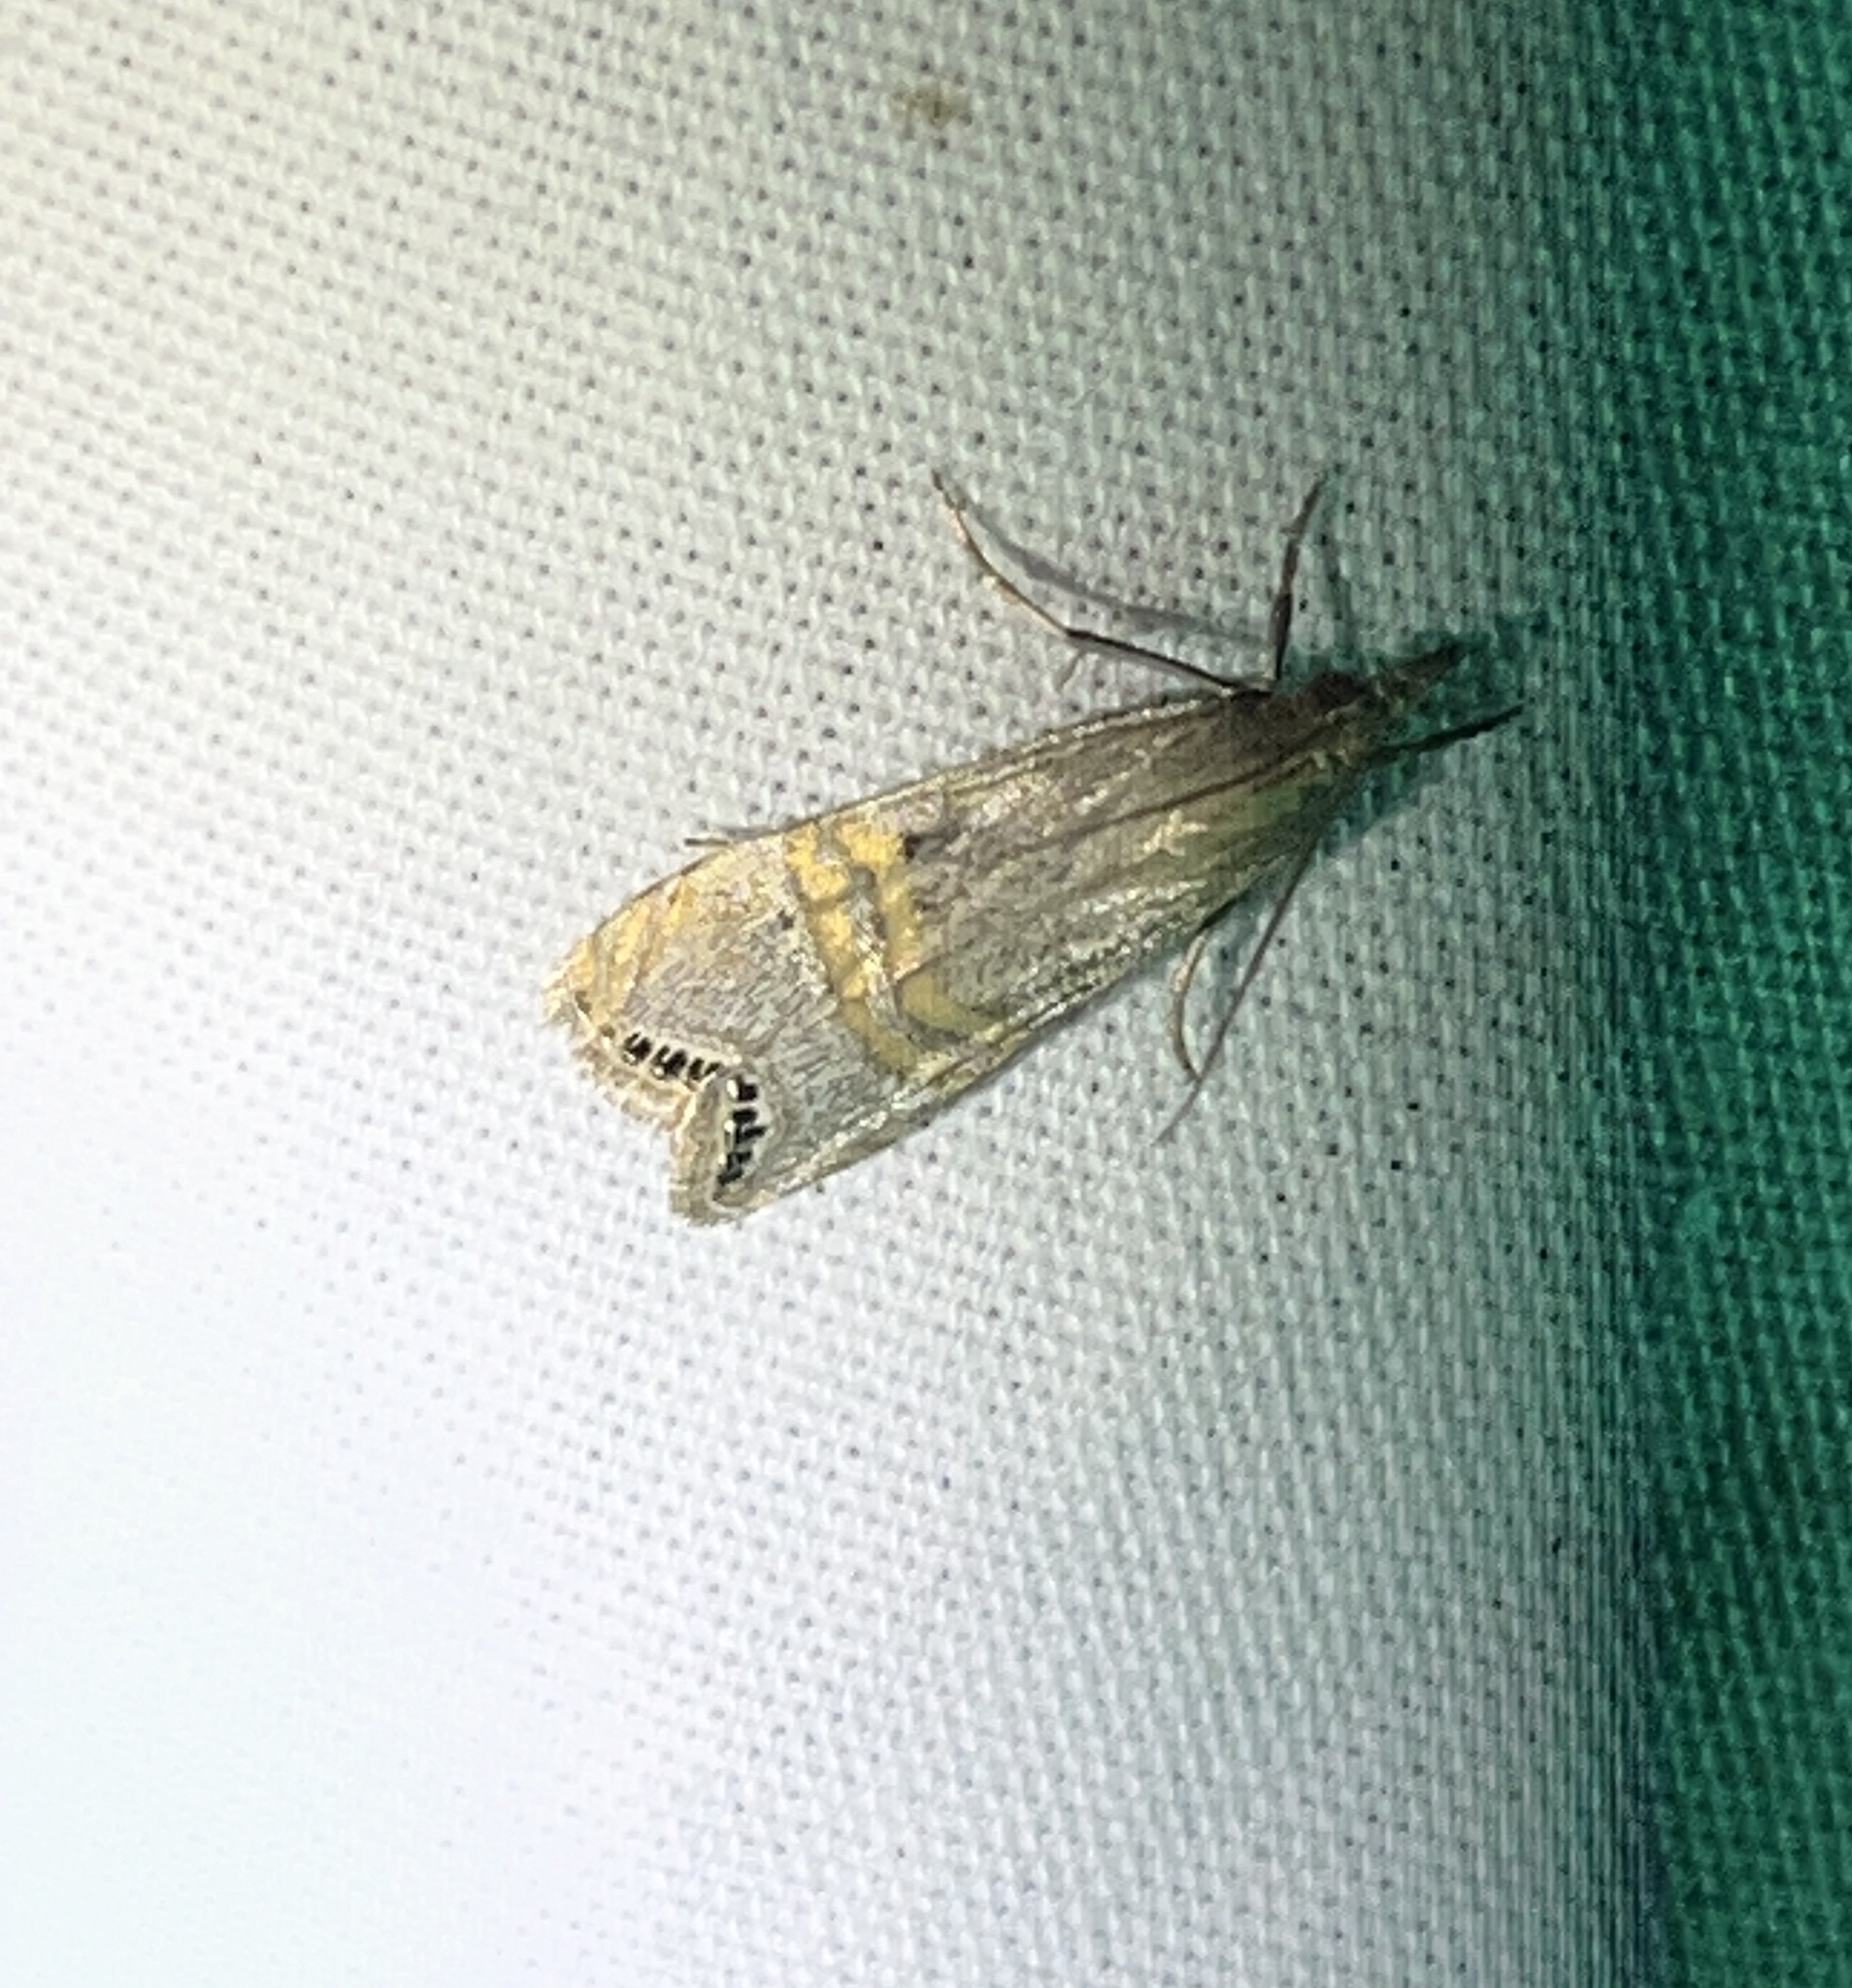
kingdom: Animalia
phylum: Arthropoda
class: Insecta
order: Lepidoptera
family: Crambidae
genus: Euchromius
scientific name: Euchromius ocellea
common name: Necklace veneer moth
